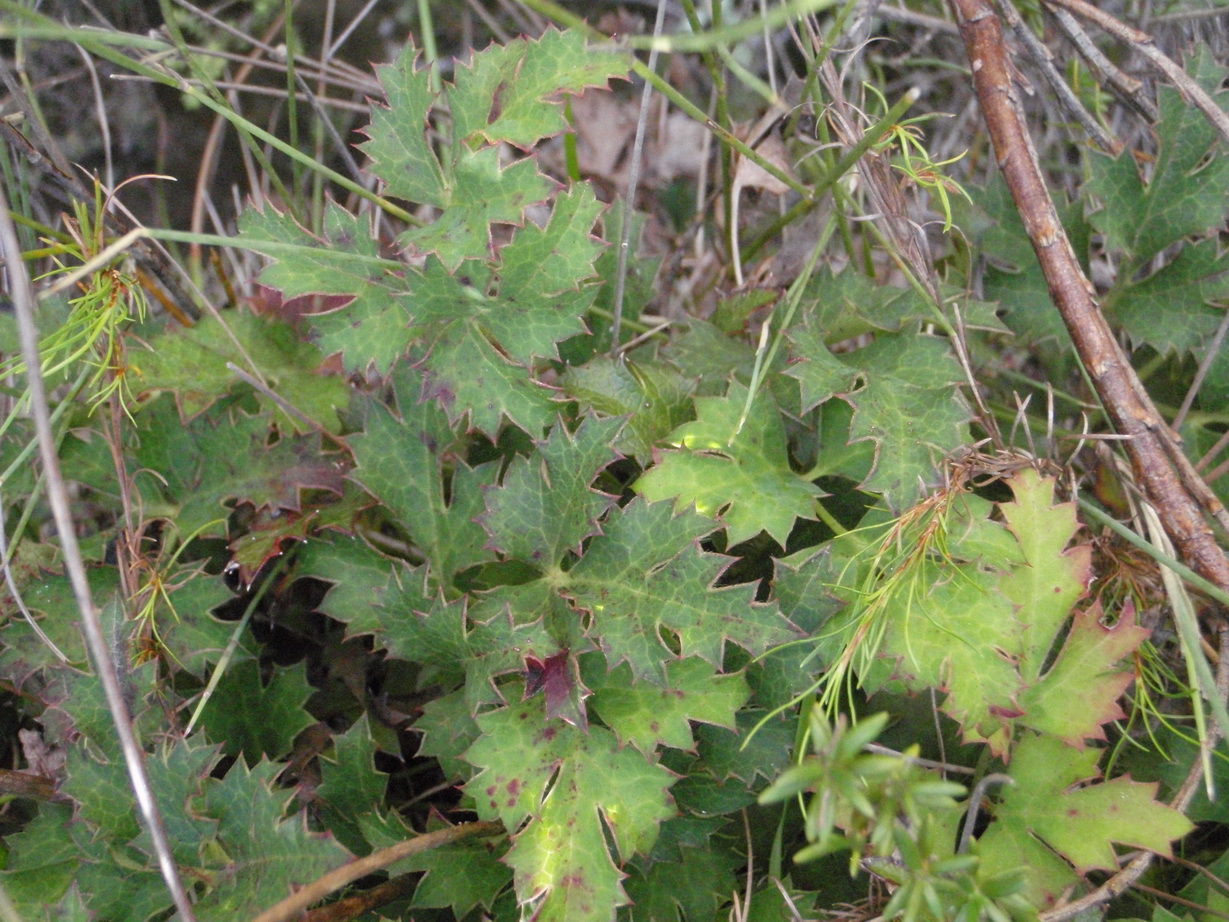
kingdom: Plantae
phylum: Tracheophyta
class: Magnoliopsida
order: Ranunculales
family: Ranunculaceae
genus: Knowltonia
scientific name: Knowltonia filia
